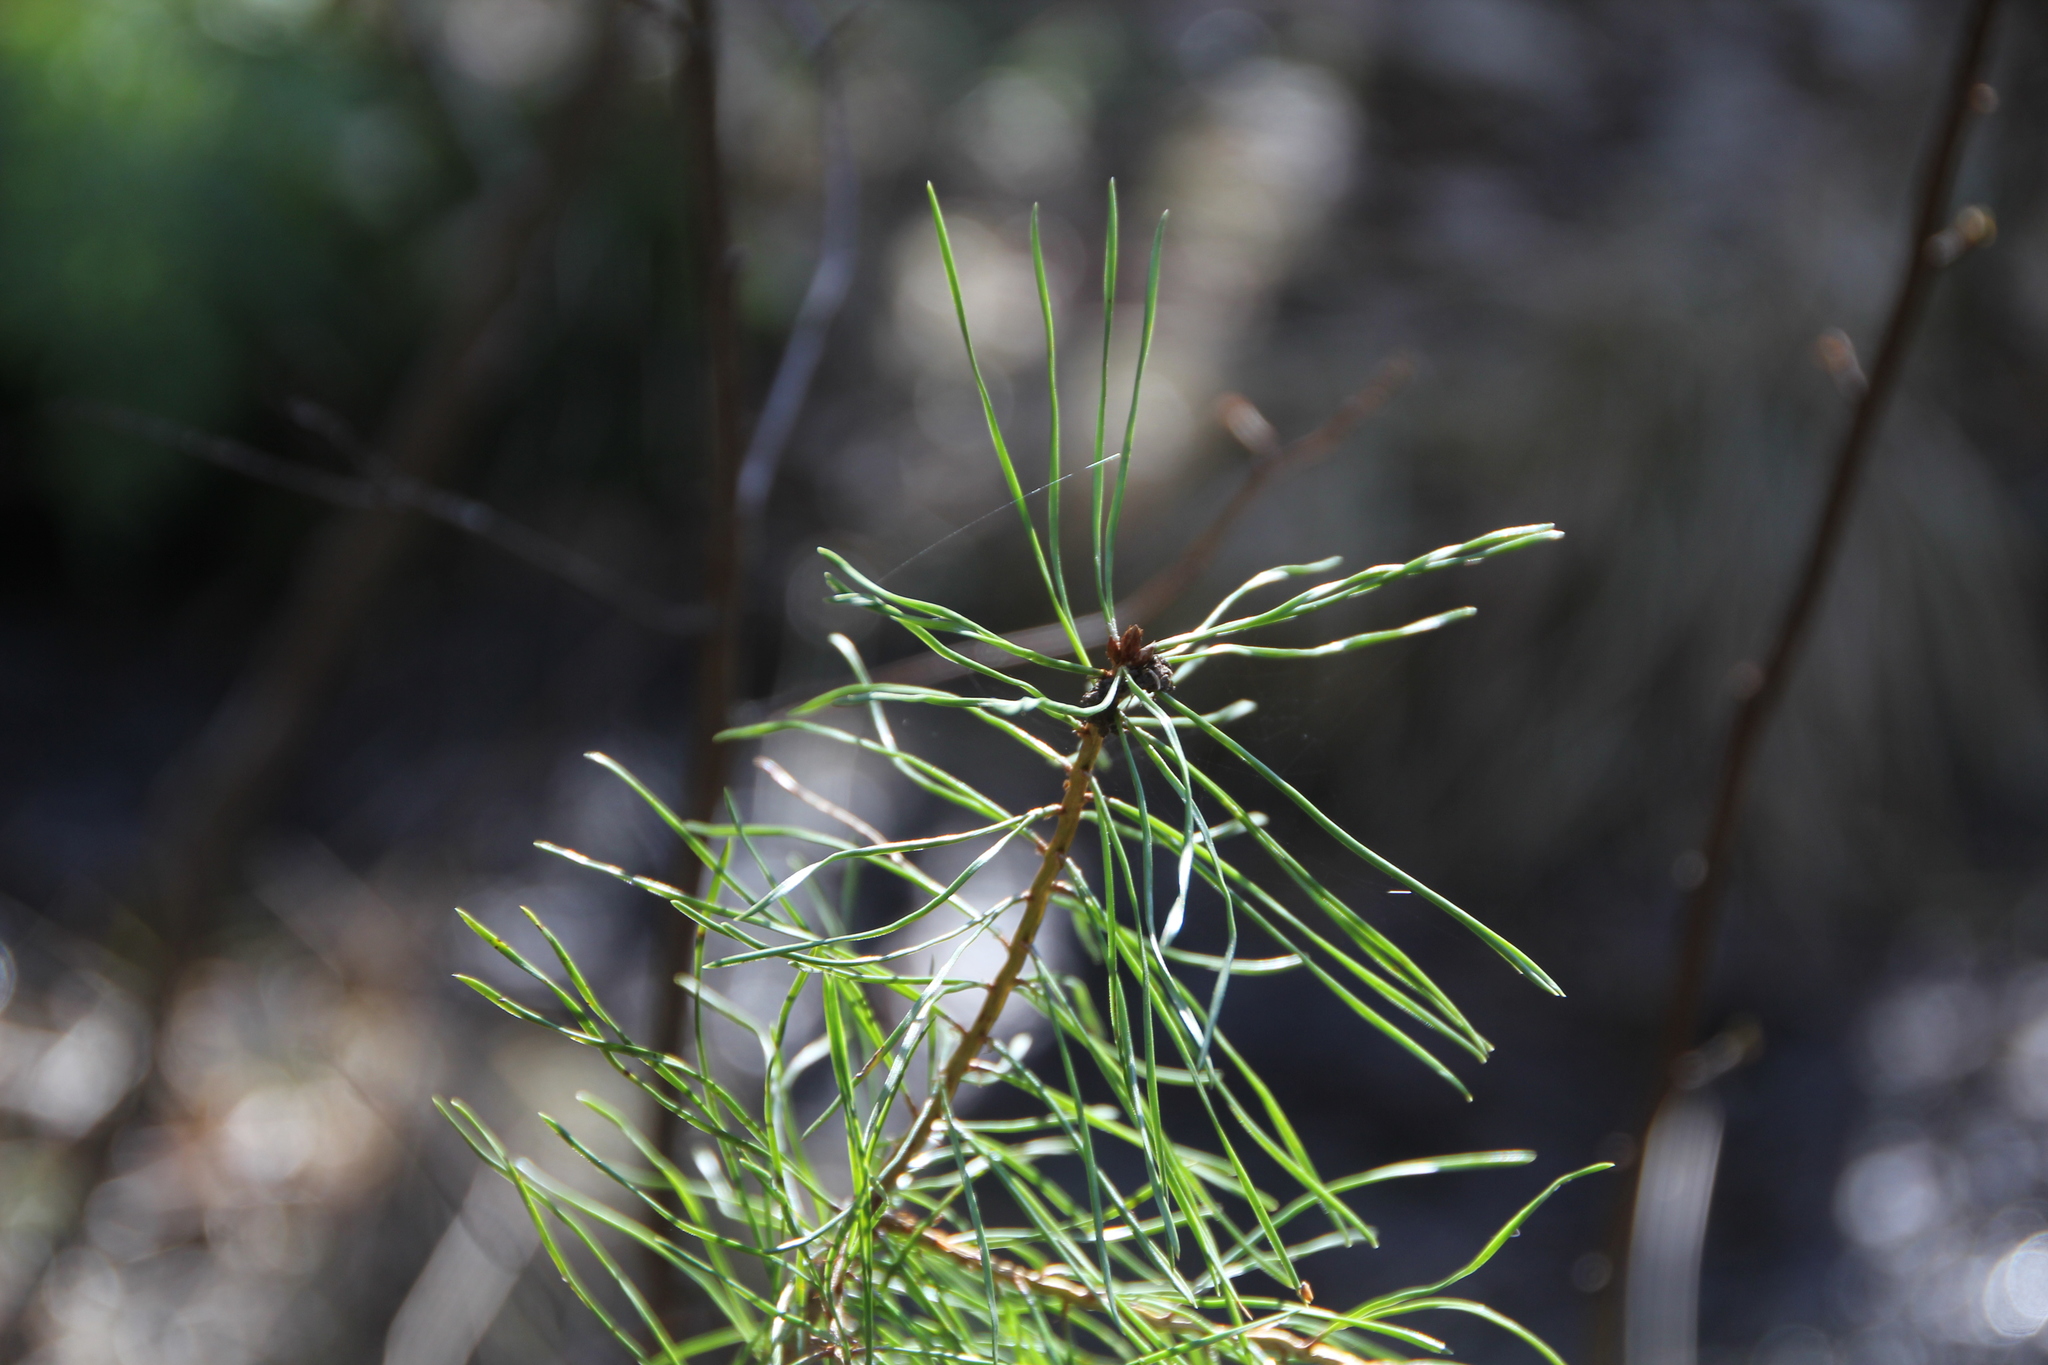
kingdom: Plantae
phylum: Tracheophyta
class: Pinopsida
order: Pinales
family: Pinaceae
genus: Pinus
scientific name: Pinus sylvestris
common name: Scots pine
